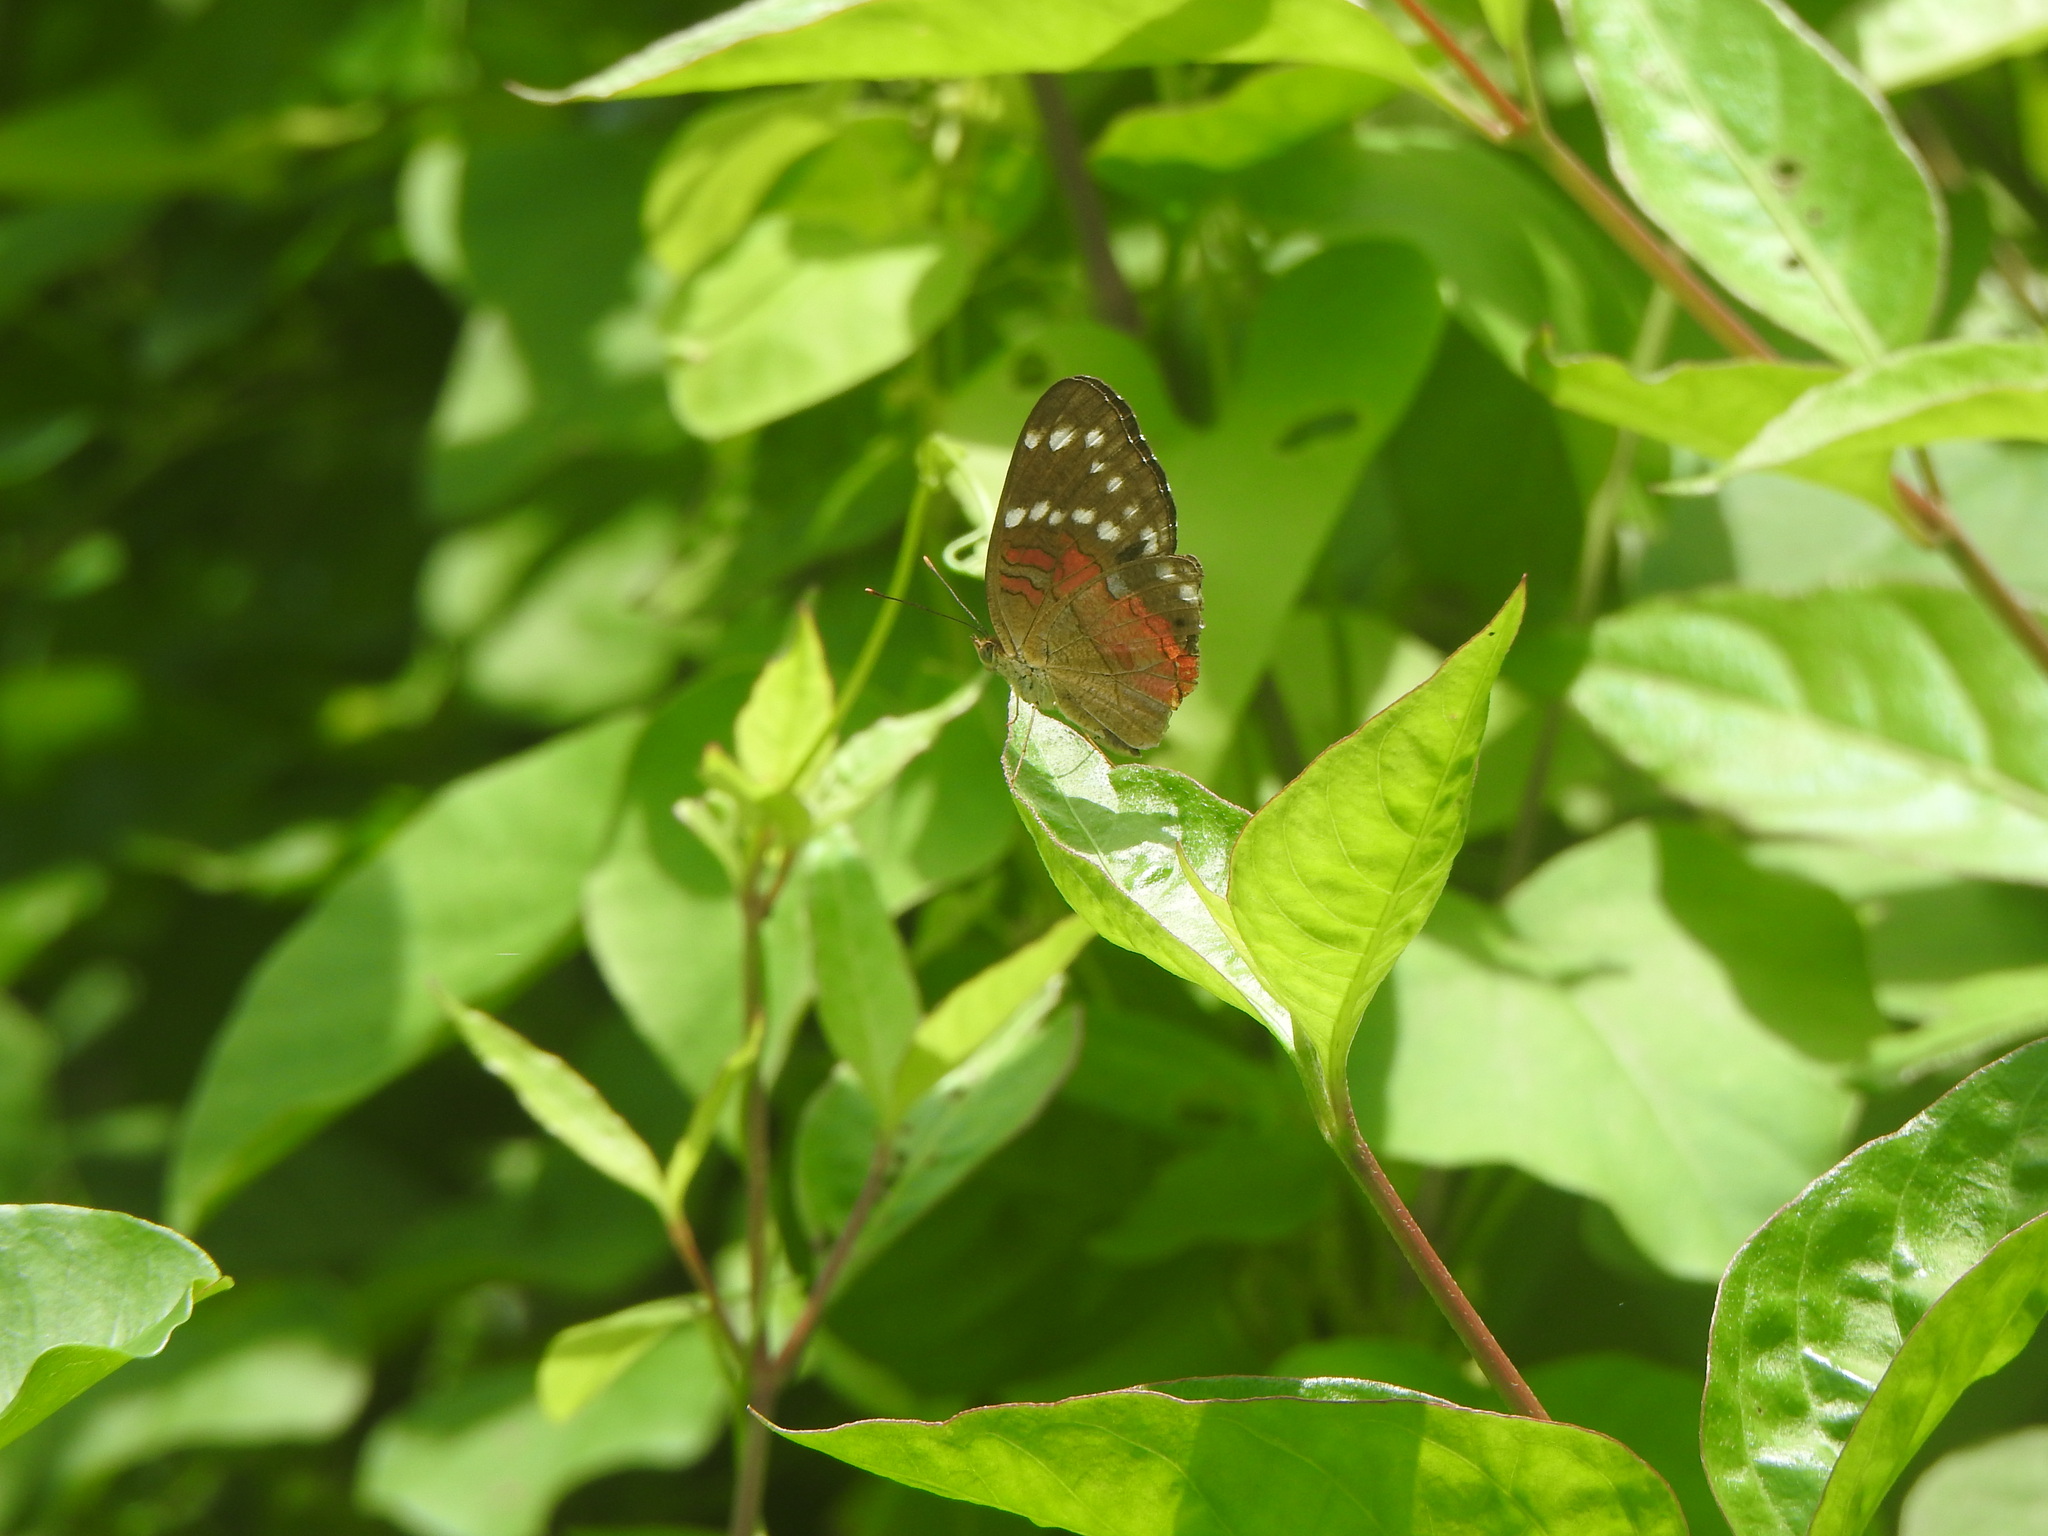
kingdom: Animalia
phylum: Arthropoda
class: Insecta
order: Lepidoptera
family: Nymphalidae
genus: Anartia
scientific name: Anartia amathea
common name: Red peacock
